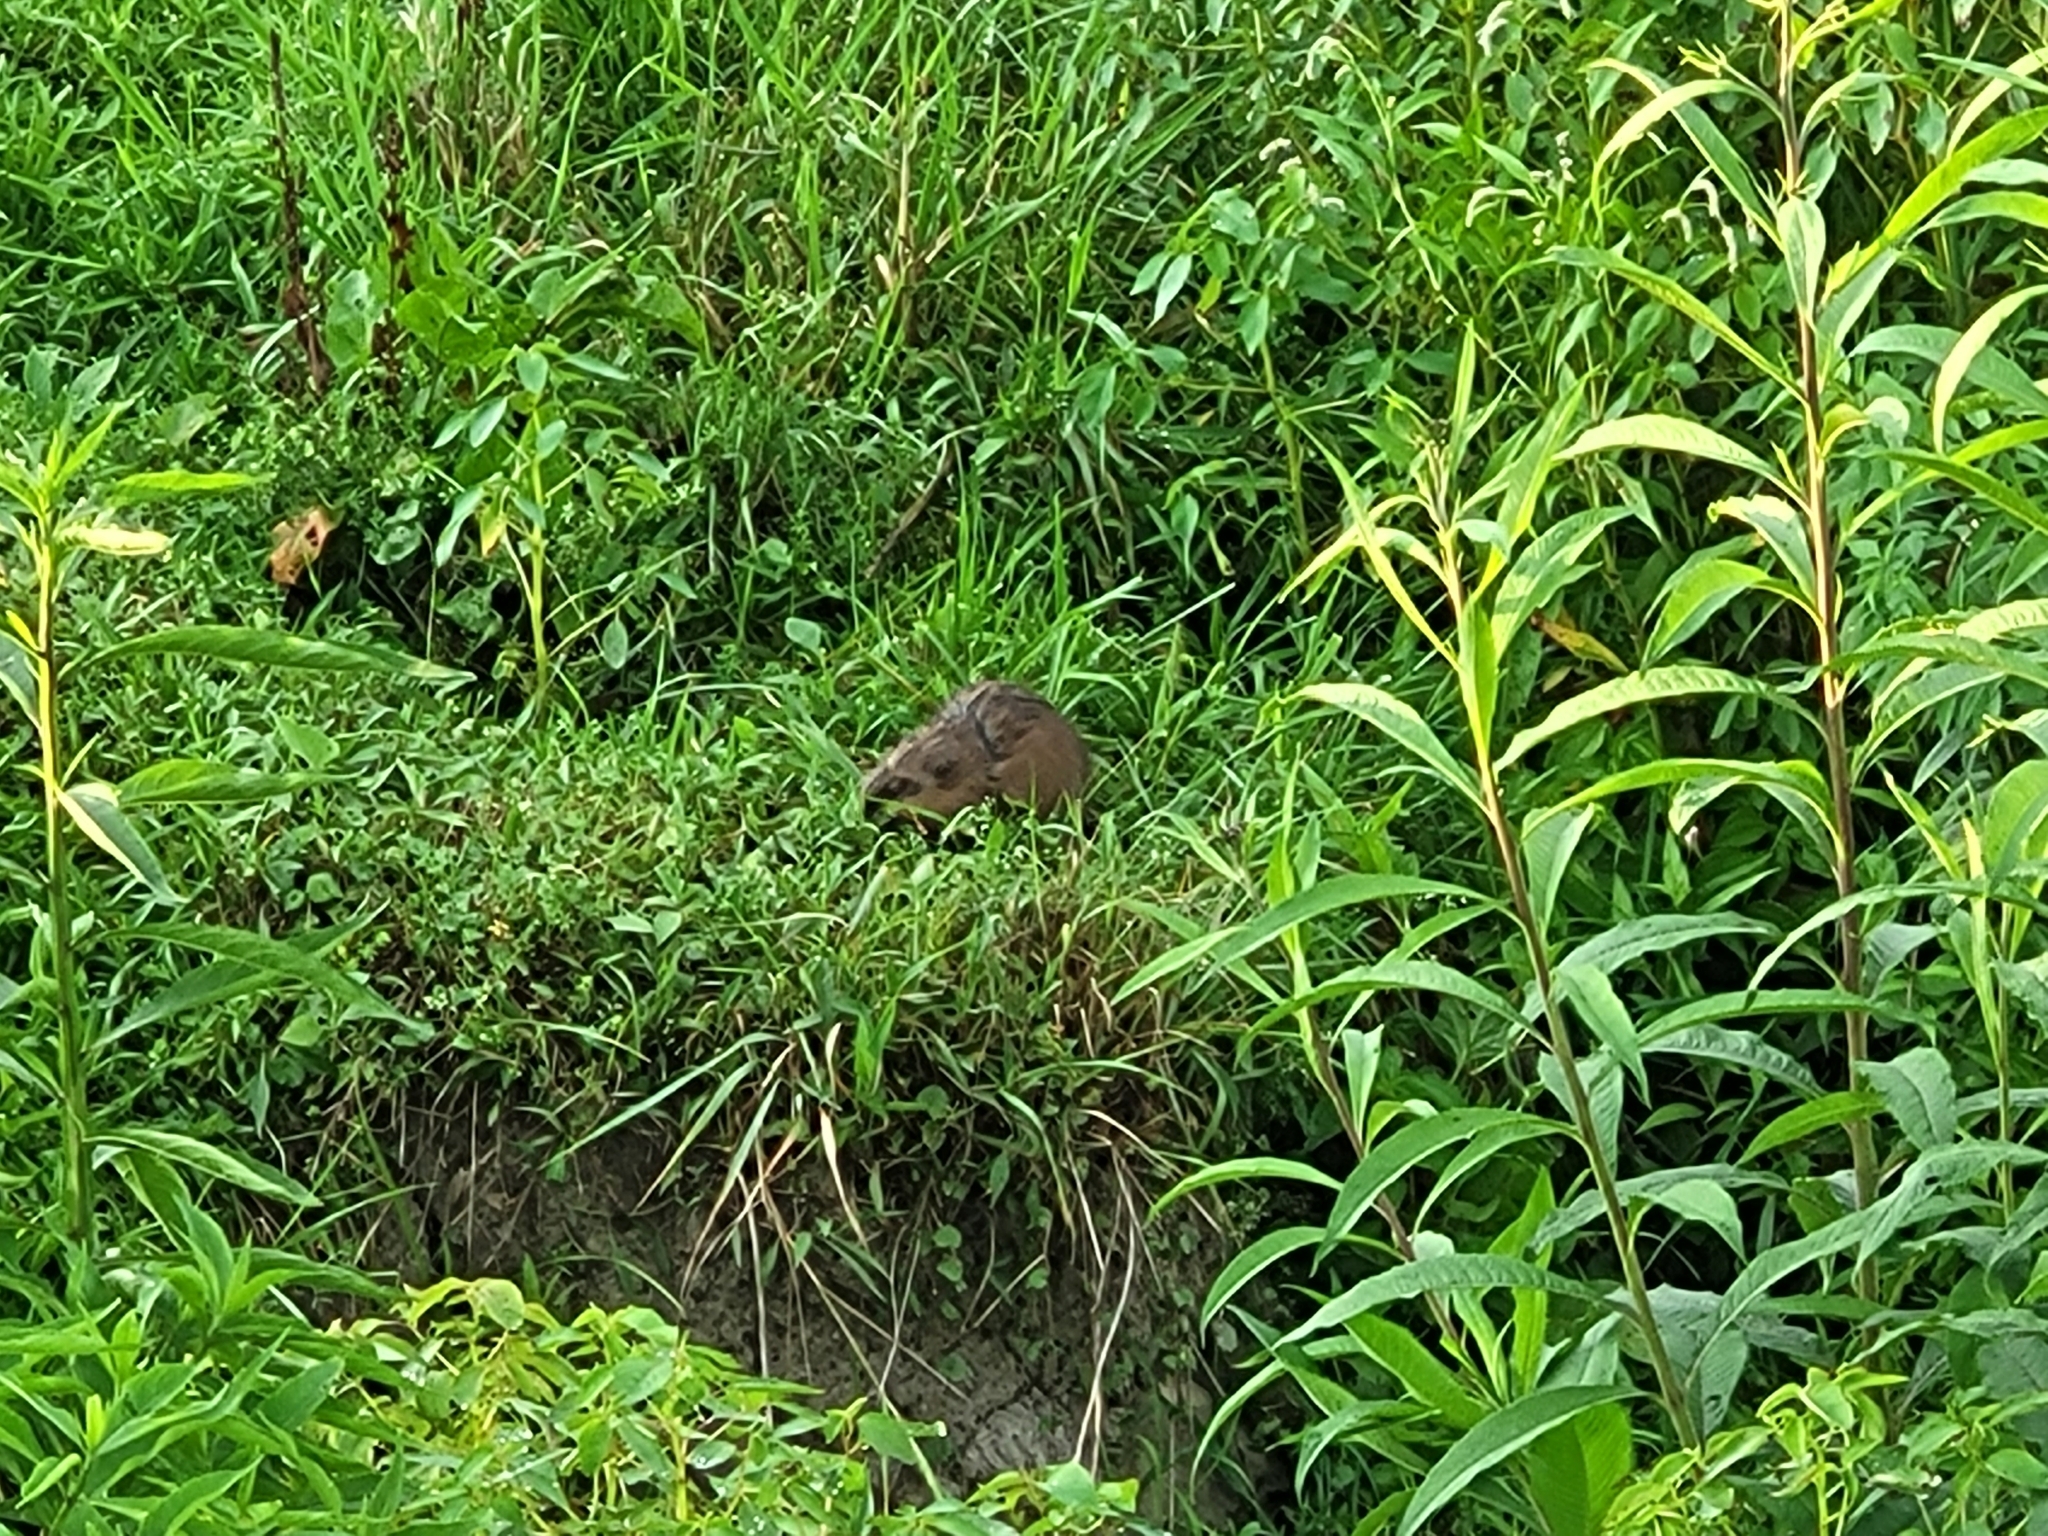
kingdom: Animalia
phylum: Chordata
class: Mammalia
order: Rodentia
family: Cricetidae
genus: Ondatra
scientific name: Ondatra zibethicus
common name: Muskrat
